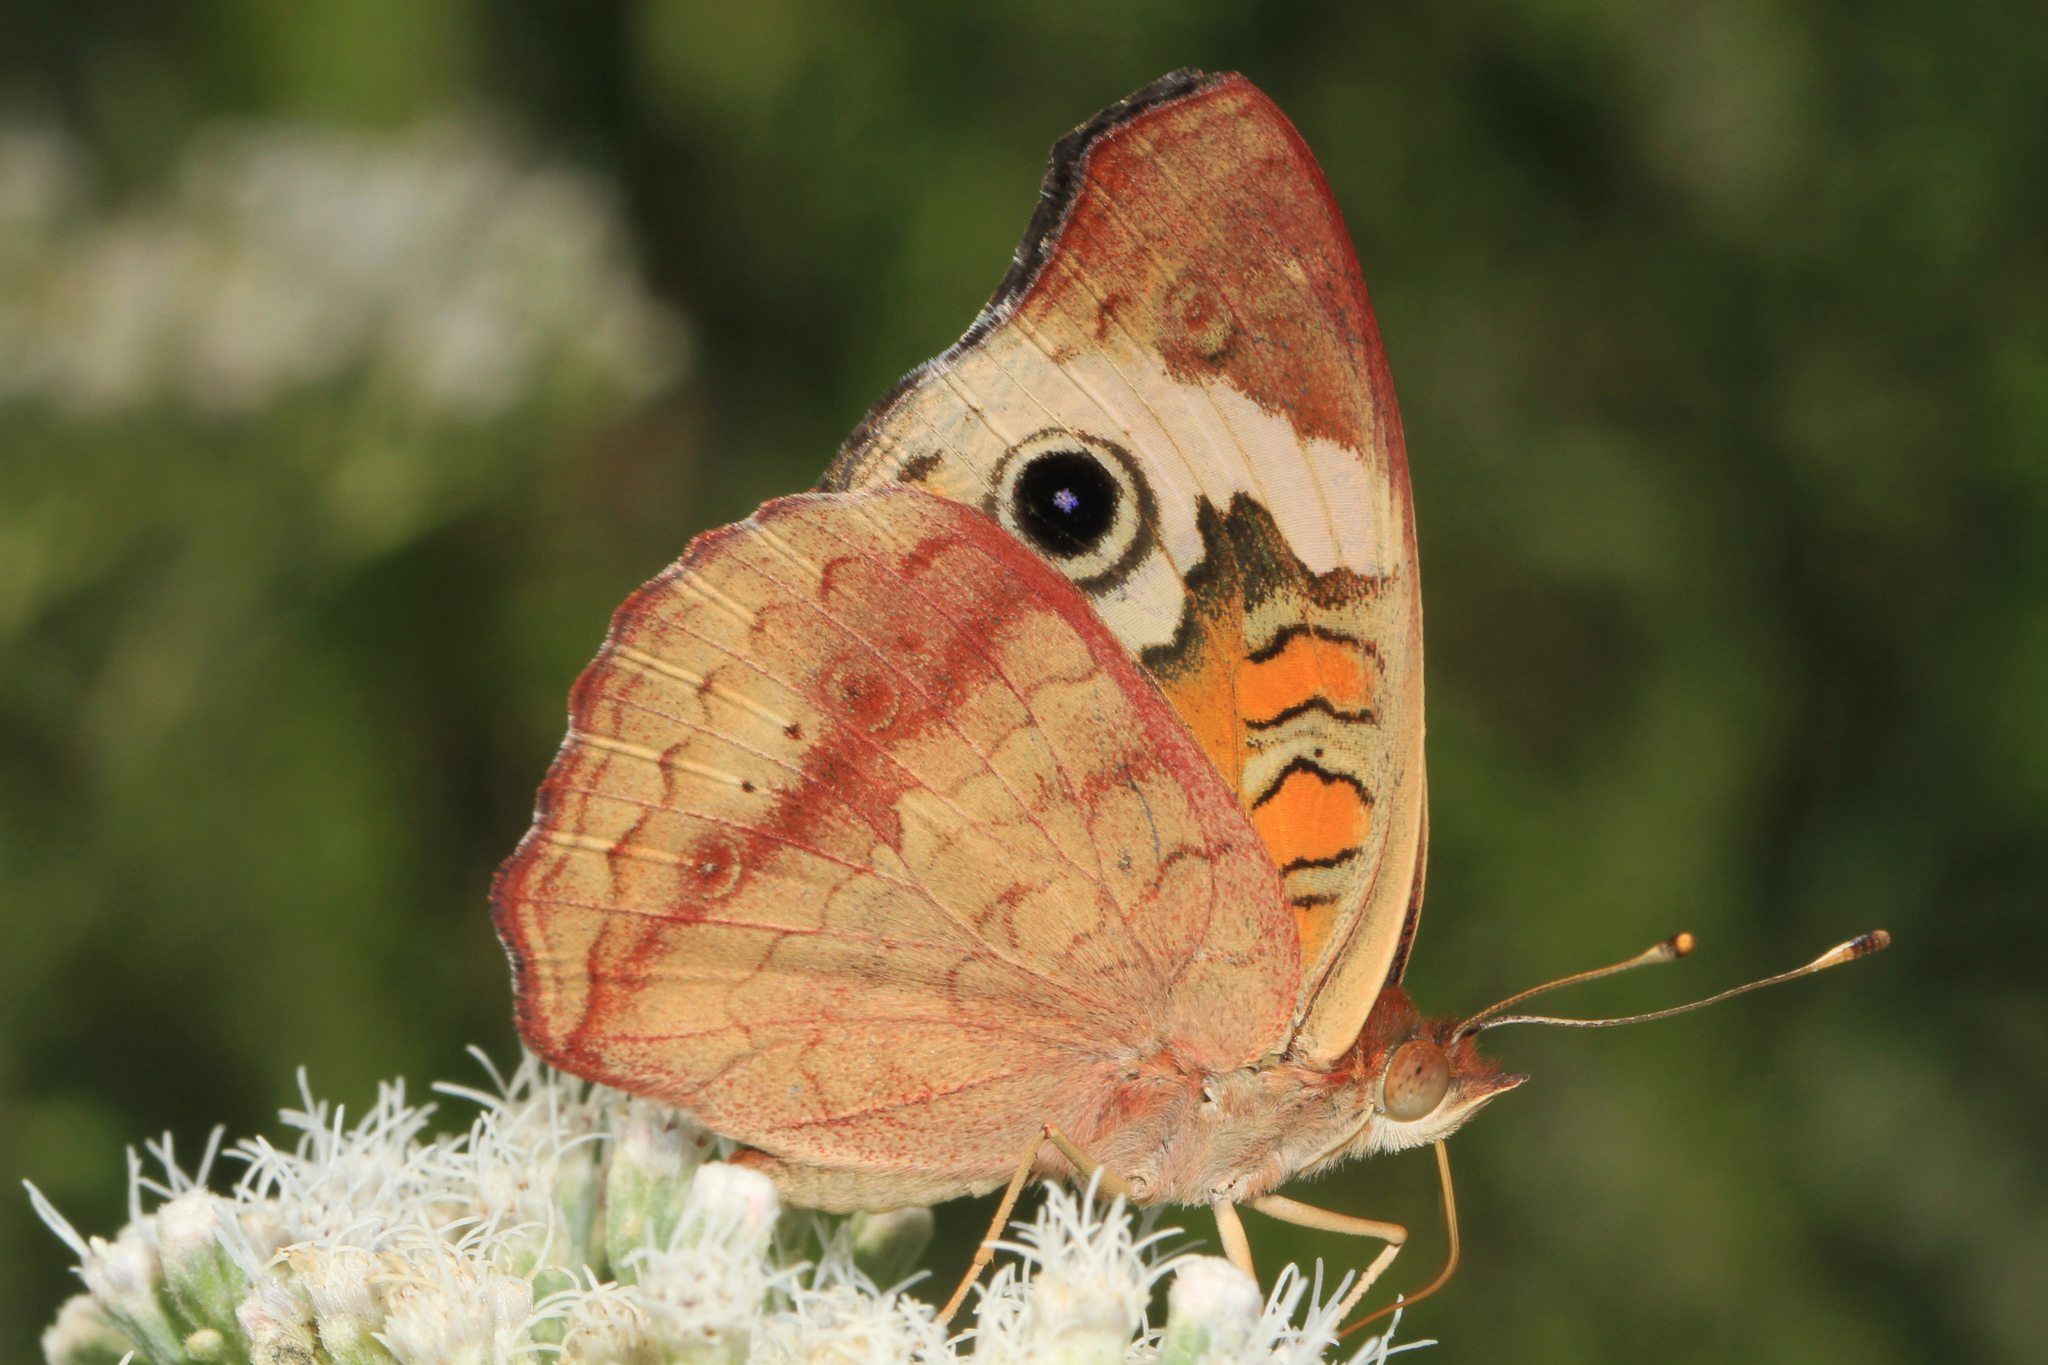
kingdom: Animalia
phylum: Arthropoda
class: Insecta
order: Lepidoptera
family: Nymphalidae
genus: Junonia
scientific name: Junonia coenia
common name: Common buckeye
